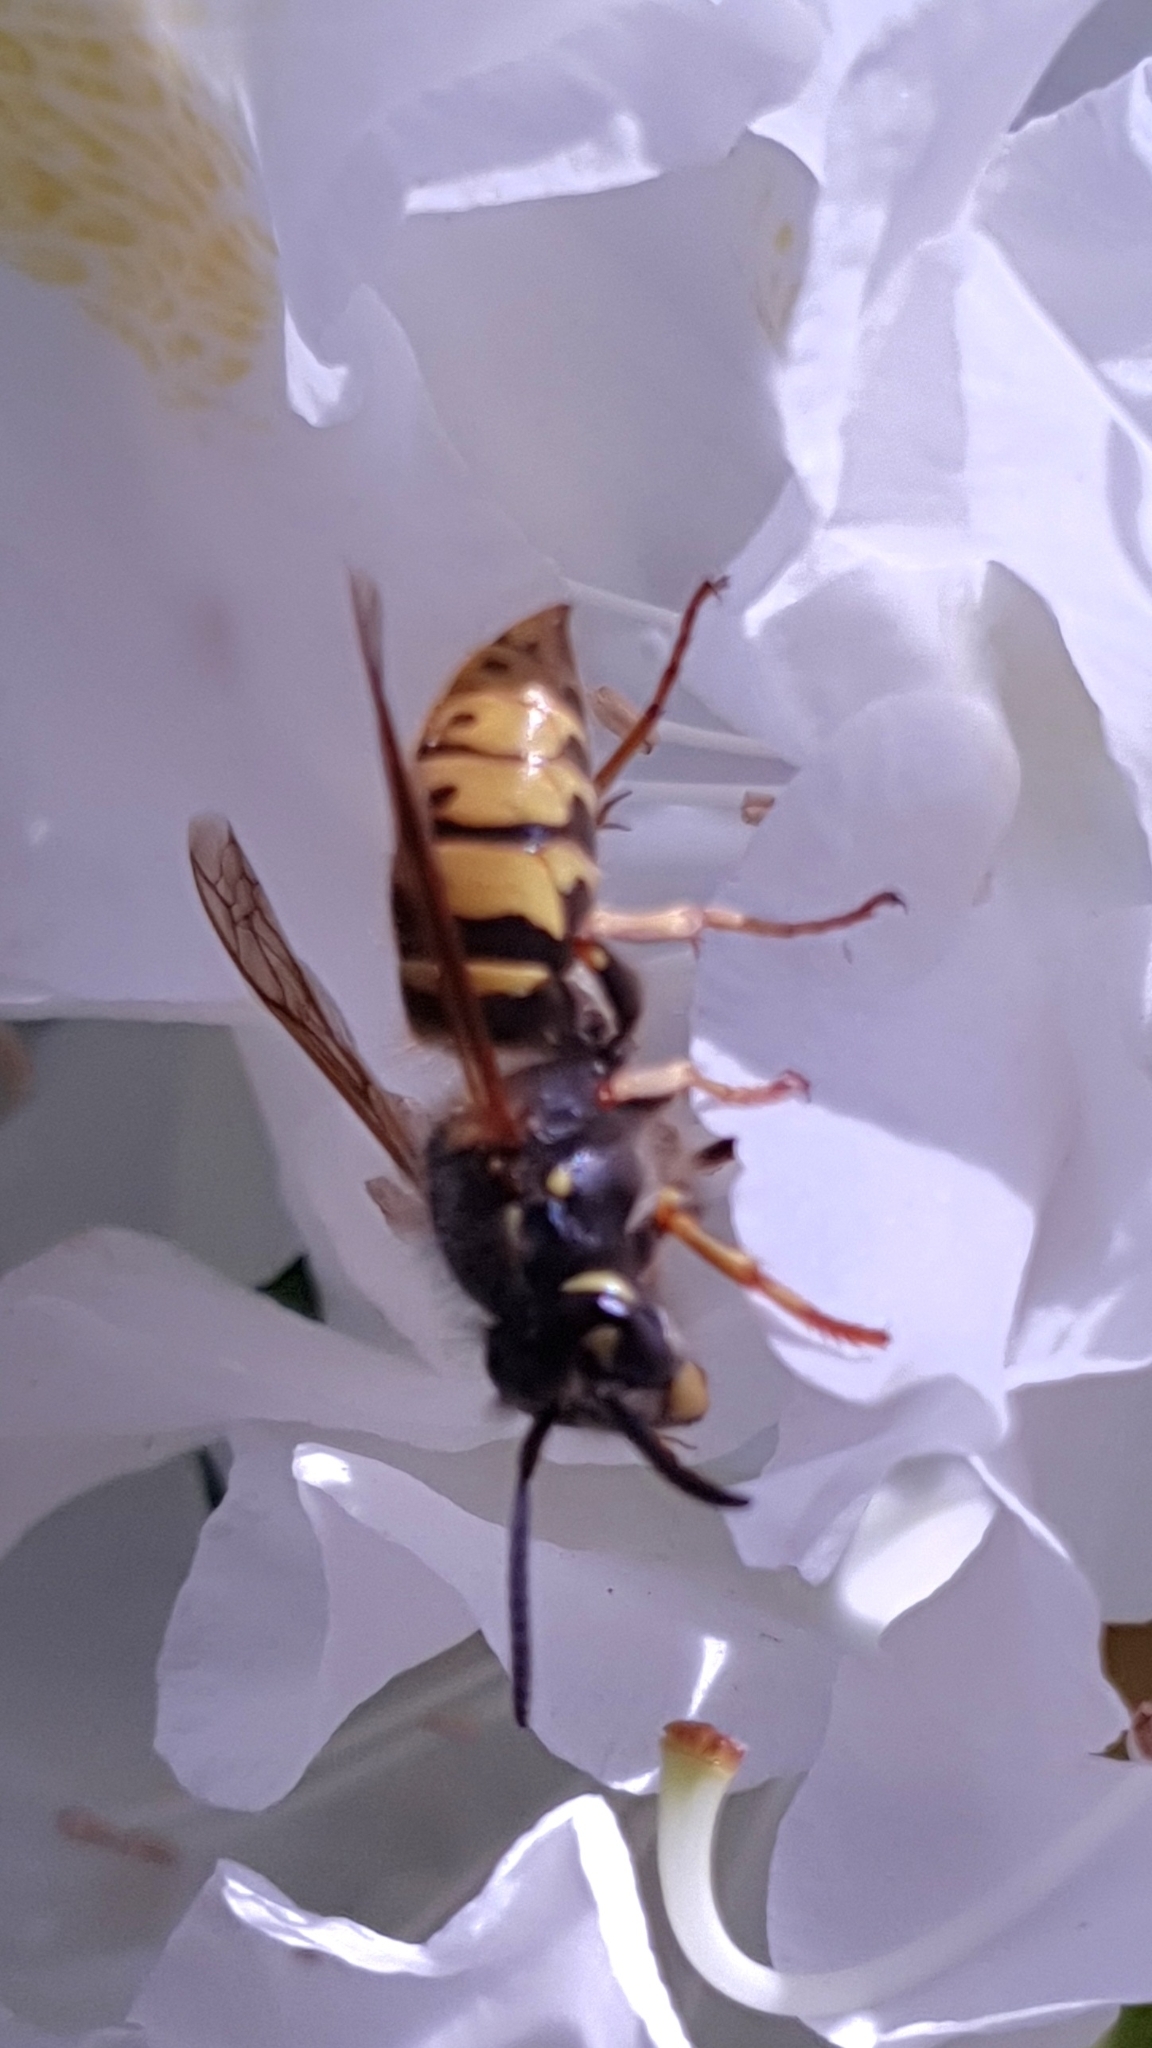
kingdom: Animalia
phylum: Arthropoda
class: Insecta
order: Hymenoptera
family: Vespidae
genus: Vespula
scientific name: Vespula vulgaris
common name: Common wasp
